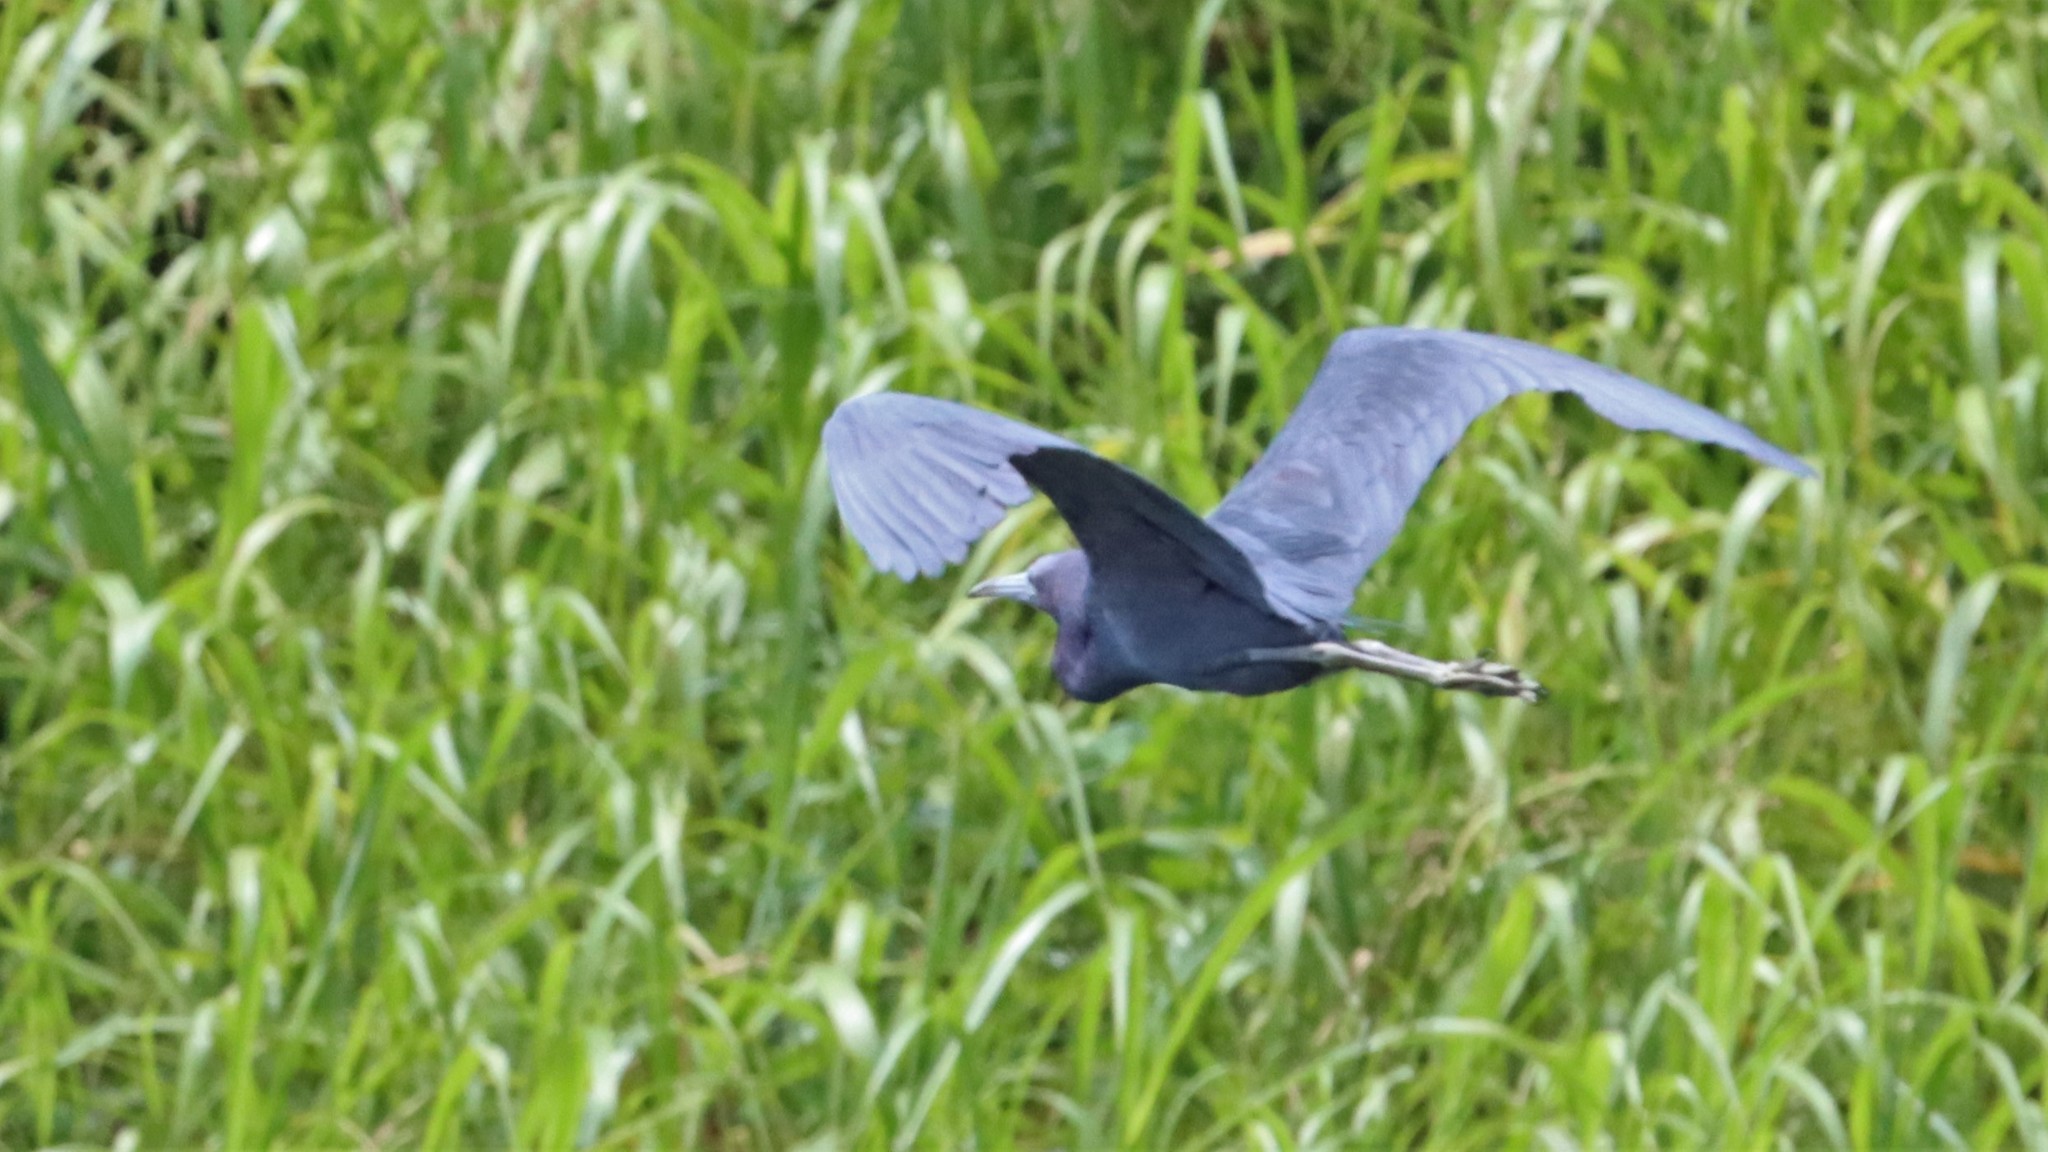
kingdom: Animalia
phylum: Chordata
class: Aves
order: Pelecaniformes
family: Ardeidae
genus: Egretta
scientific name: Egretta caerulea
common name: Little blue heron
